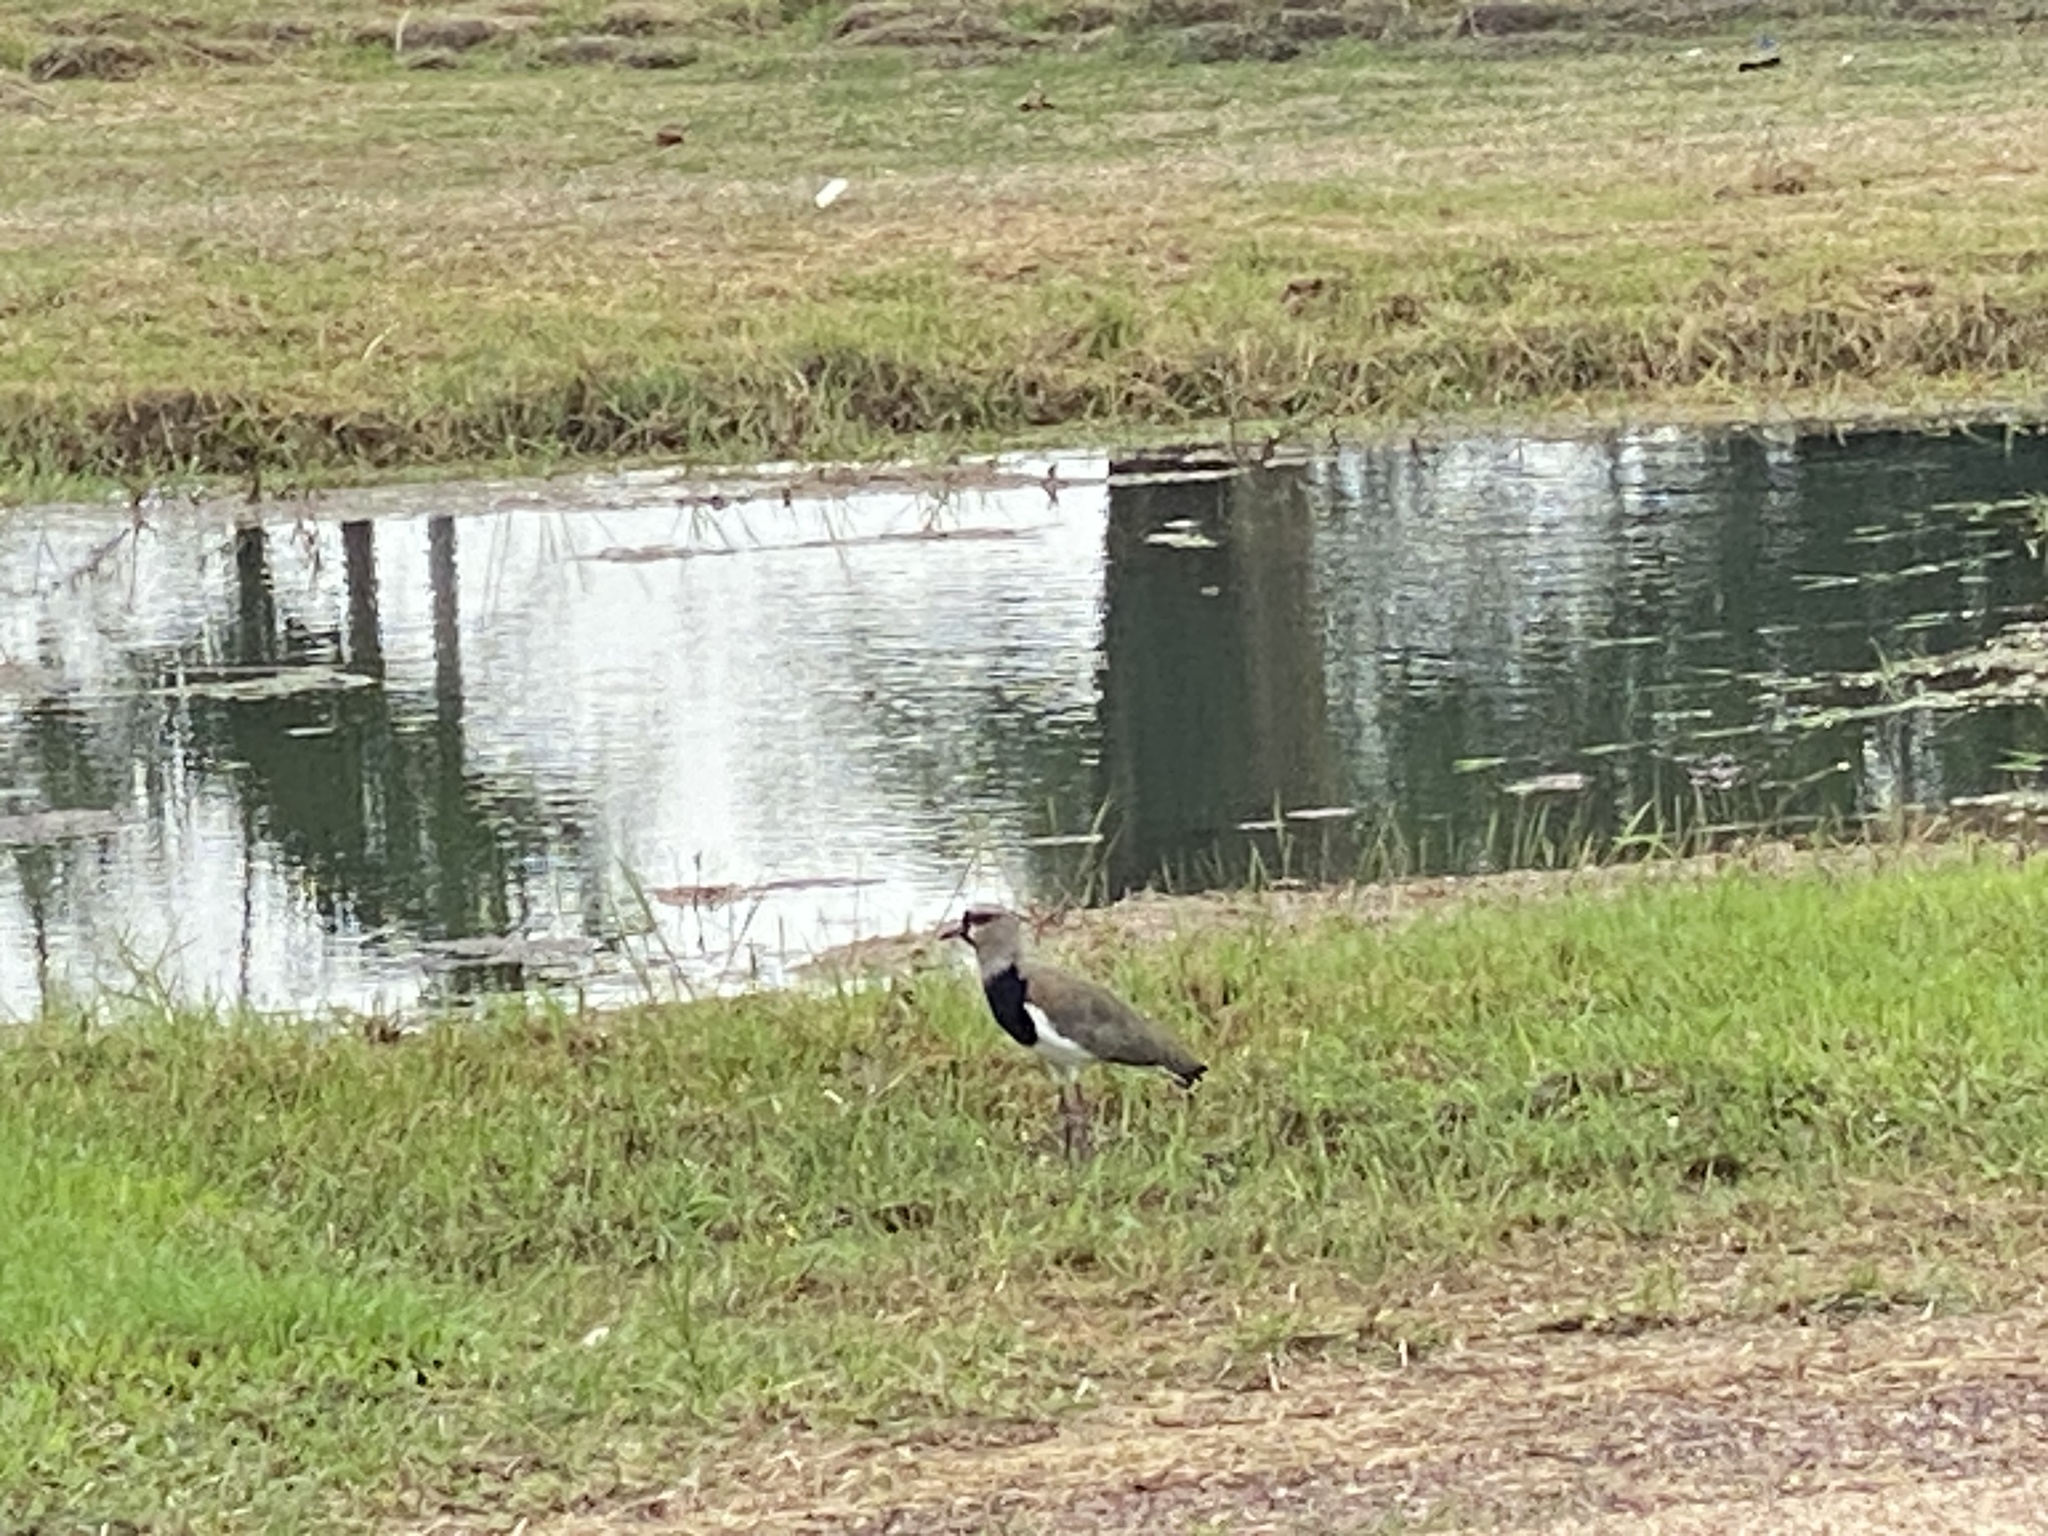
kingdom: Animalia
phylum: Chordata
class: Aves
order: Charadriiformes
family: Charadriidae
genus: Vanellus
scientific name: Vanellus chilensis
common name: Southern lapwing
